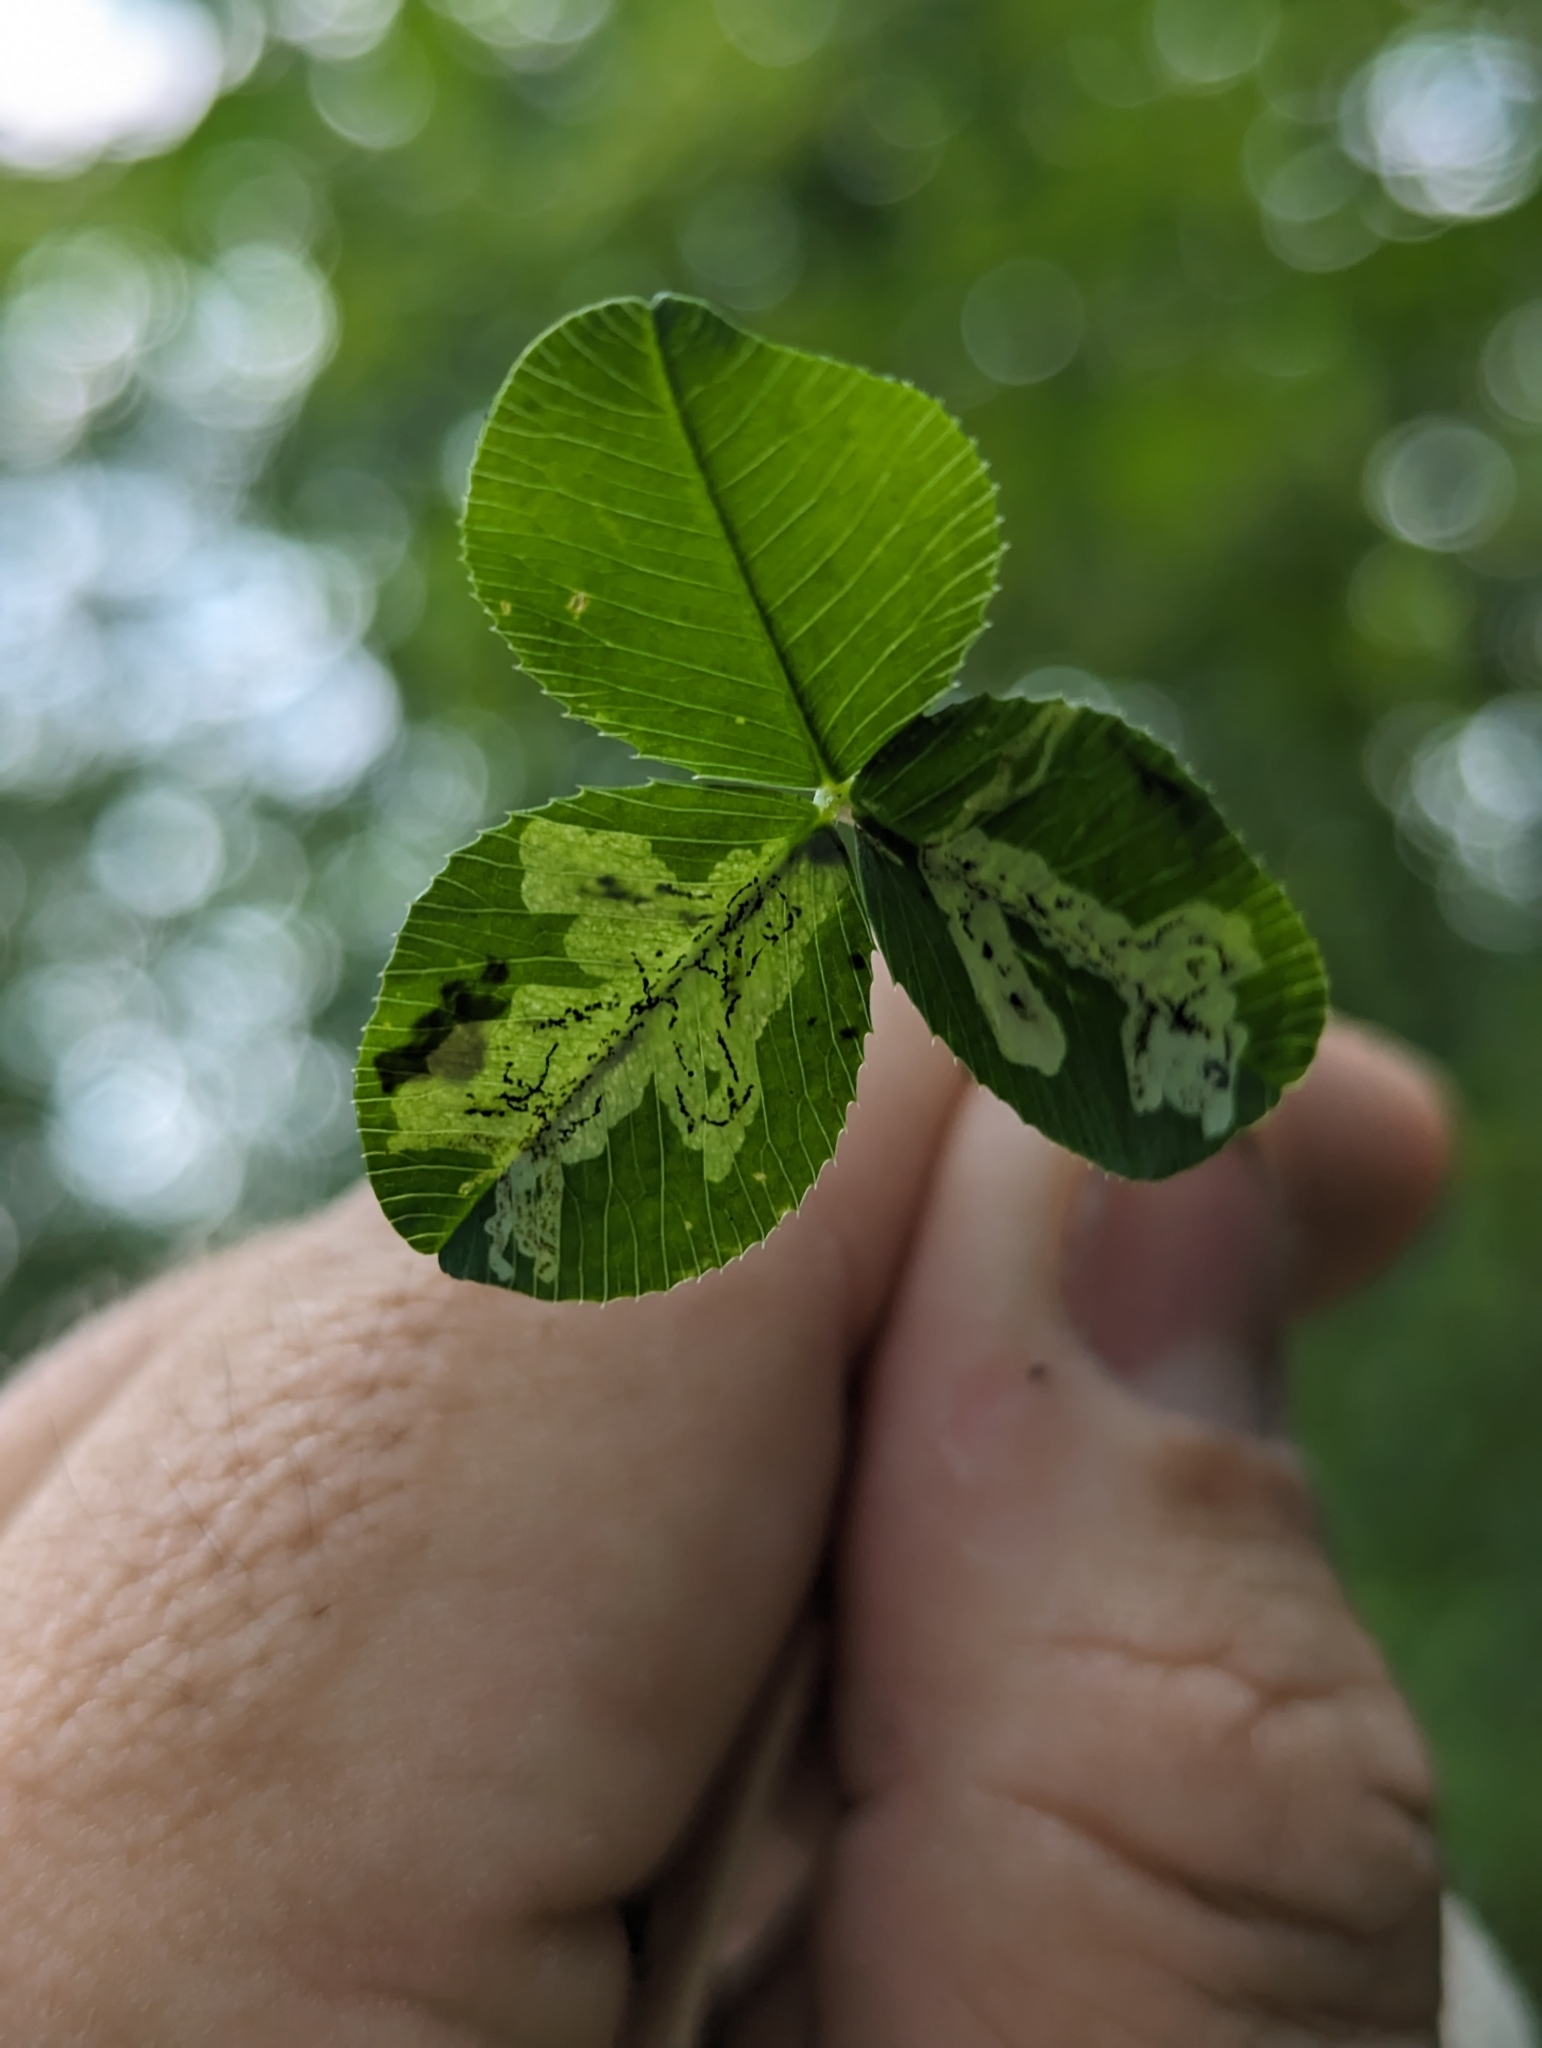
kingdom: Animalia
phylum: Arthropoda
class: Insecta
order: Diptera
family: Agromyzidae
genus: Liriomyza
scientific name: Liriomyza fricki
